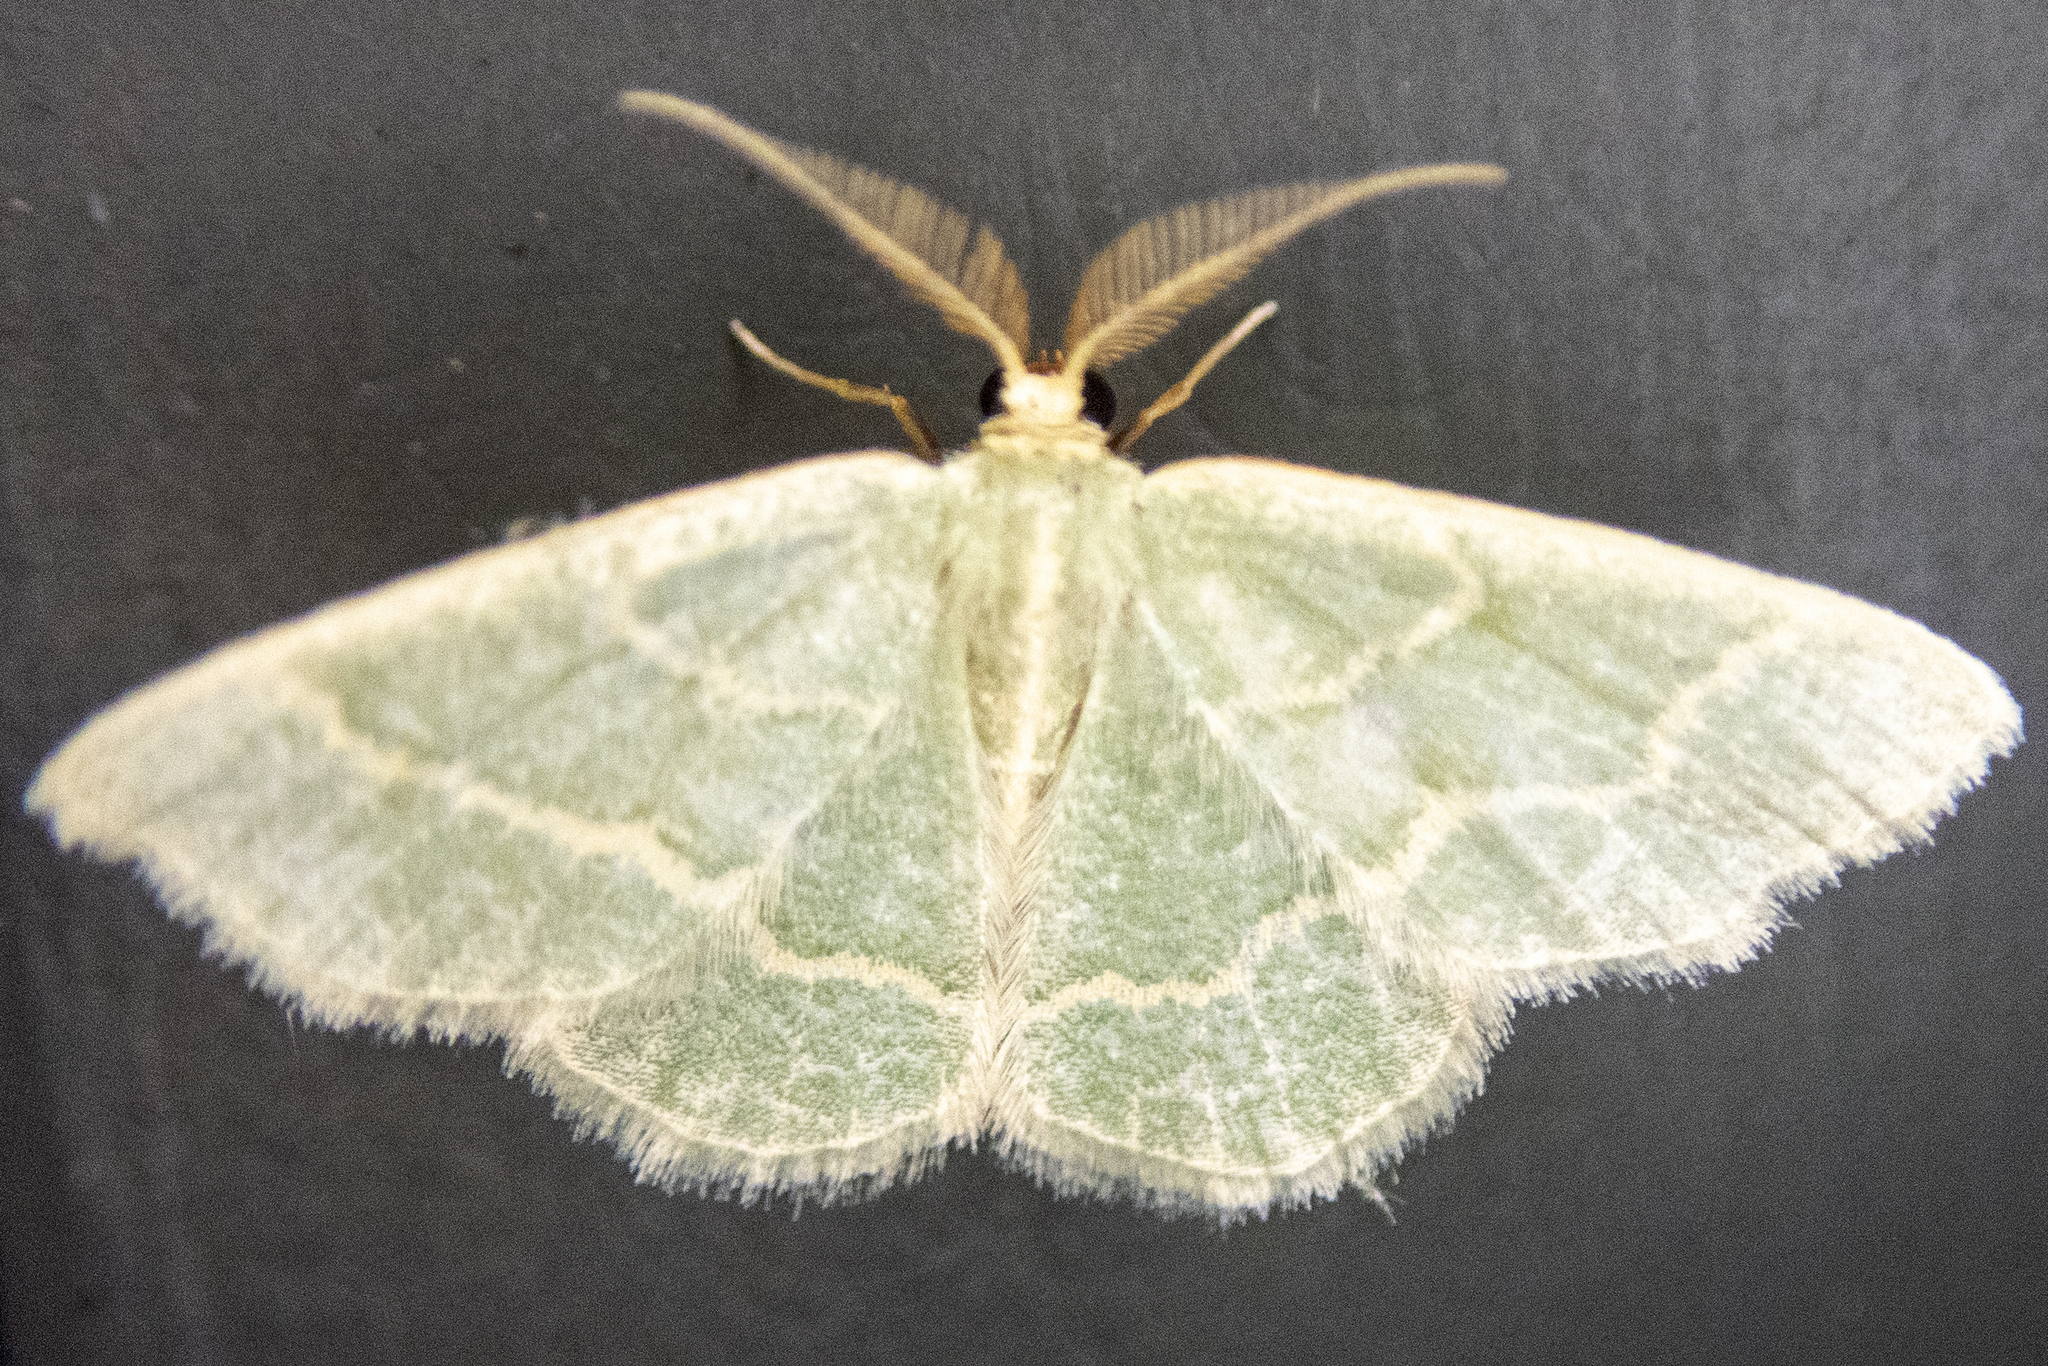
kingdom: Animalia
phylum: Arthropoda
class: Insecta
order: Lepidoptera
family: Geometridae
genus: Chlorochlamys
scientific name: Chlorochlamys chloroleucaria
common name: Blackberry looper
